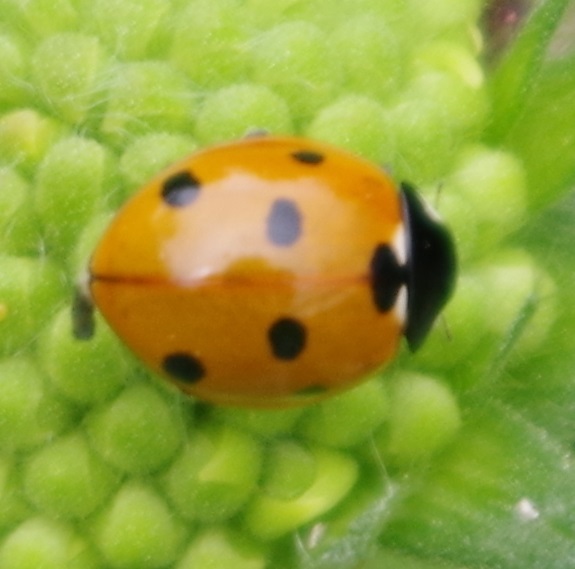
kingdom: Animalia
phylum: Arthropoda
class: Insecta
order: Coleoptera
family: Coccinellidae
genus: Coccinella
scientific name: Coccinella septempunctata
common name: Sevenspotted lady beetle
